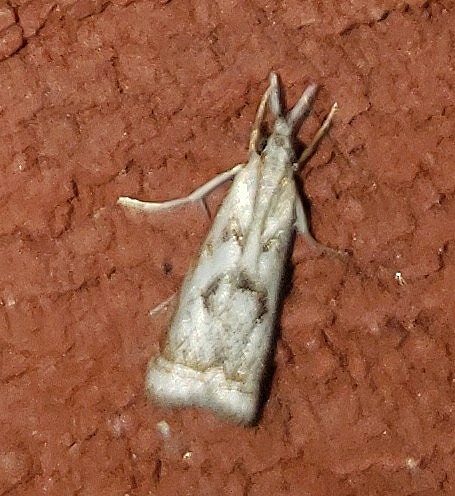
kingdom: Animalia
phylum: Arthropoda
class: Insecta
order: Lepidoptera
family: Crambidae
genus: Microcrambus
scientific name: Microcrambus elegans
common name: Elegant grass-veneer
